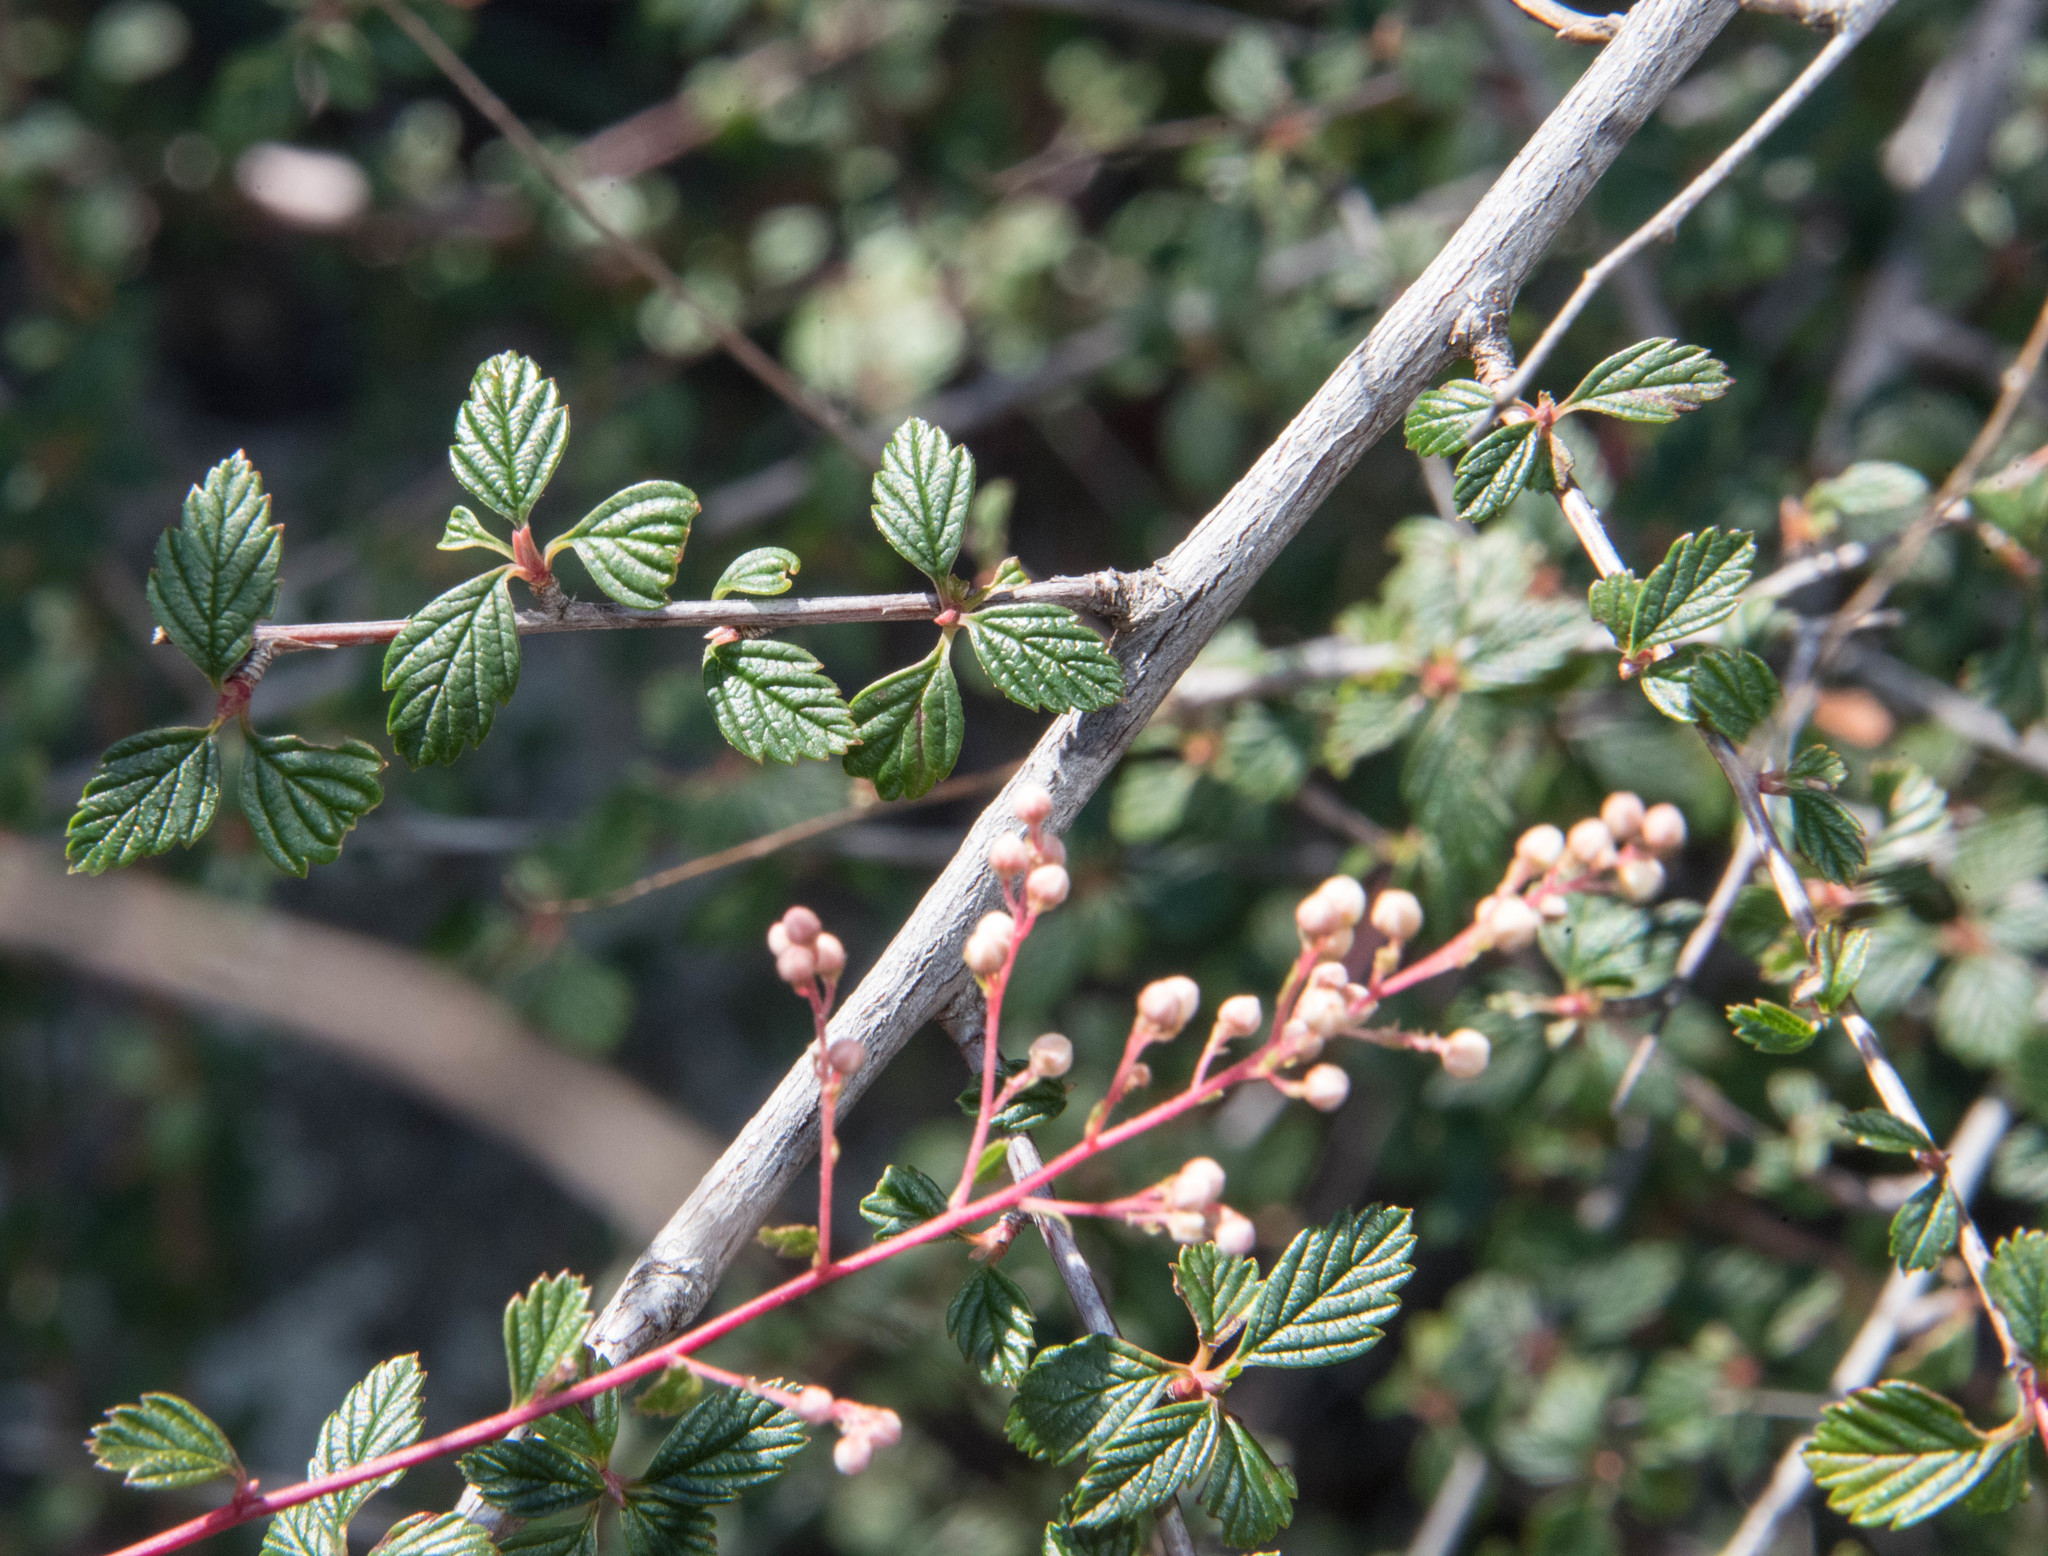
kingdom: Plantae
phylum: Tracheophyta
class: Magnoliopsida
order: Rosales
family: Rosaceae
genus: Holodiscus
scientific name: Holodiscus discolor
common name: Oceanspray
